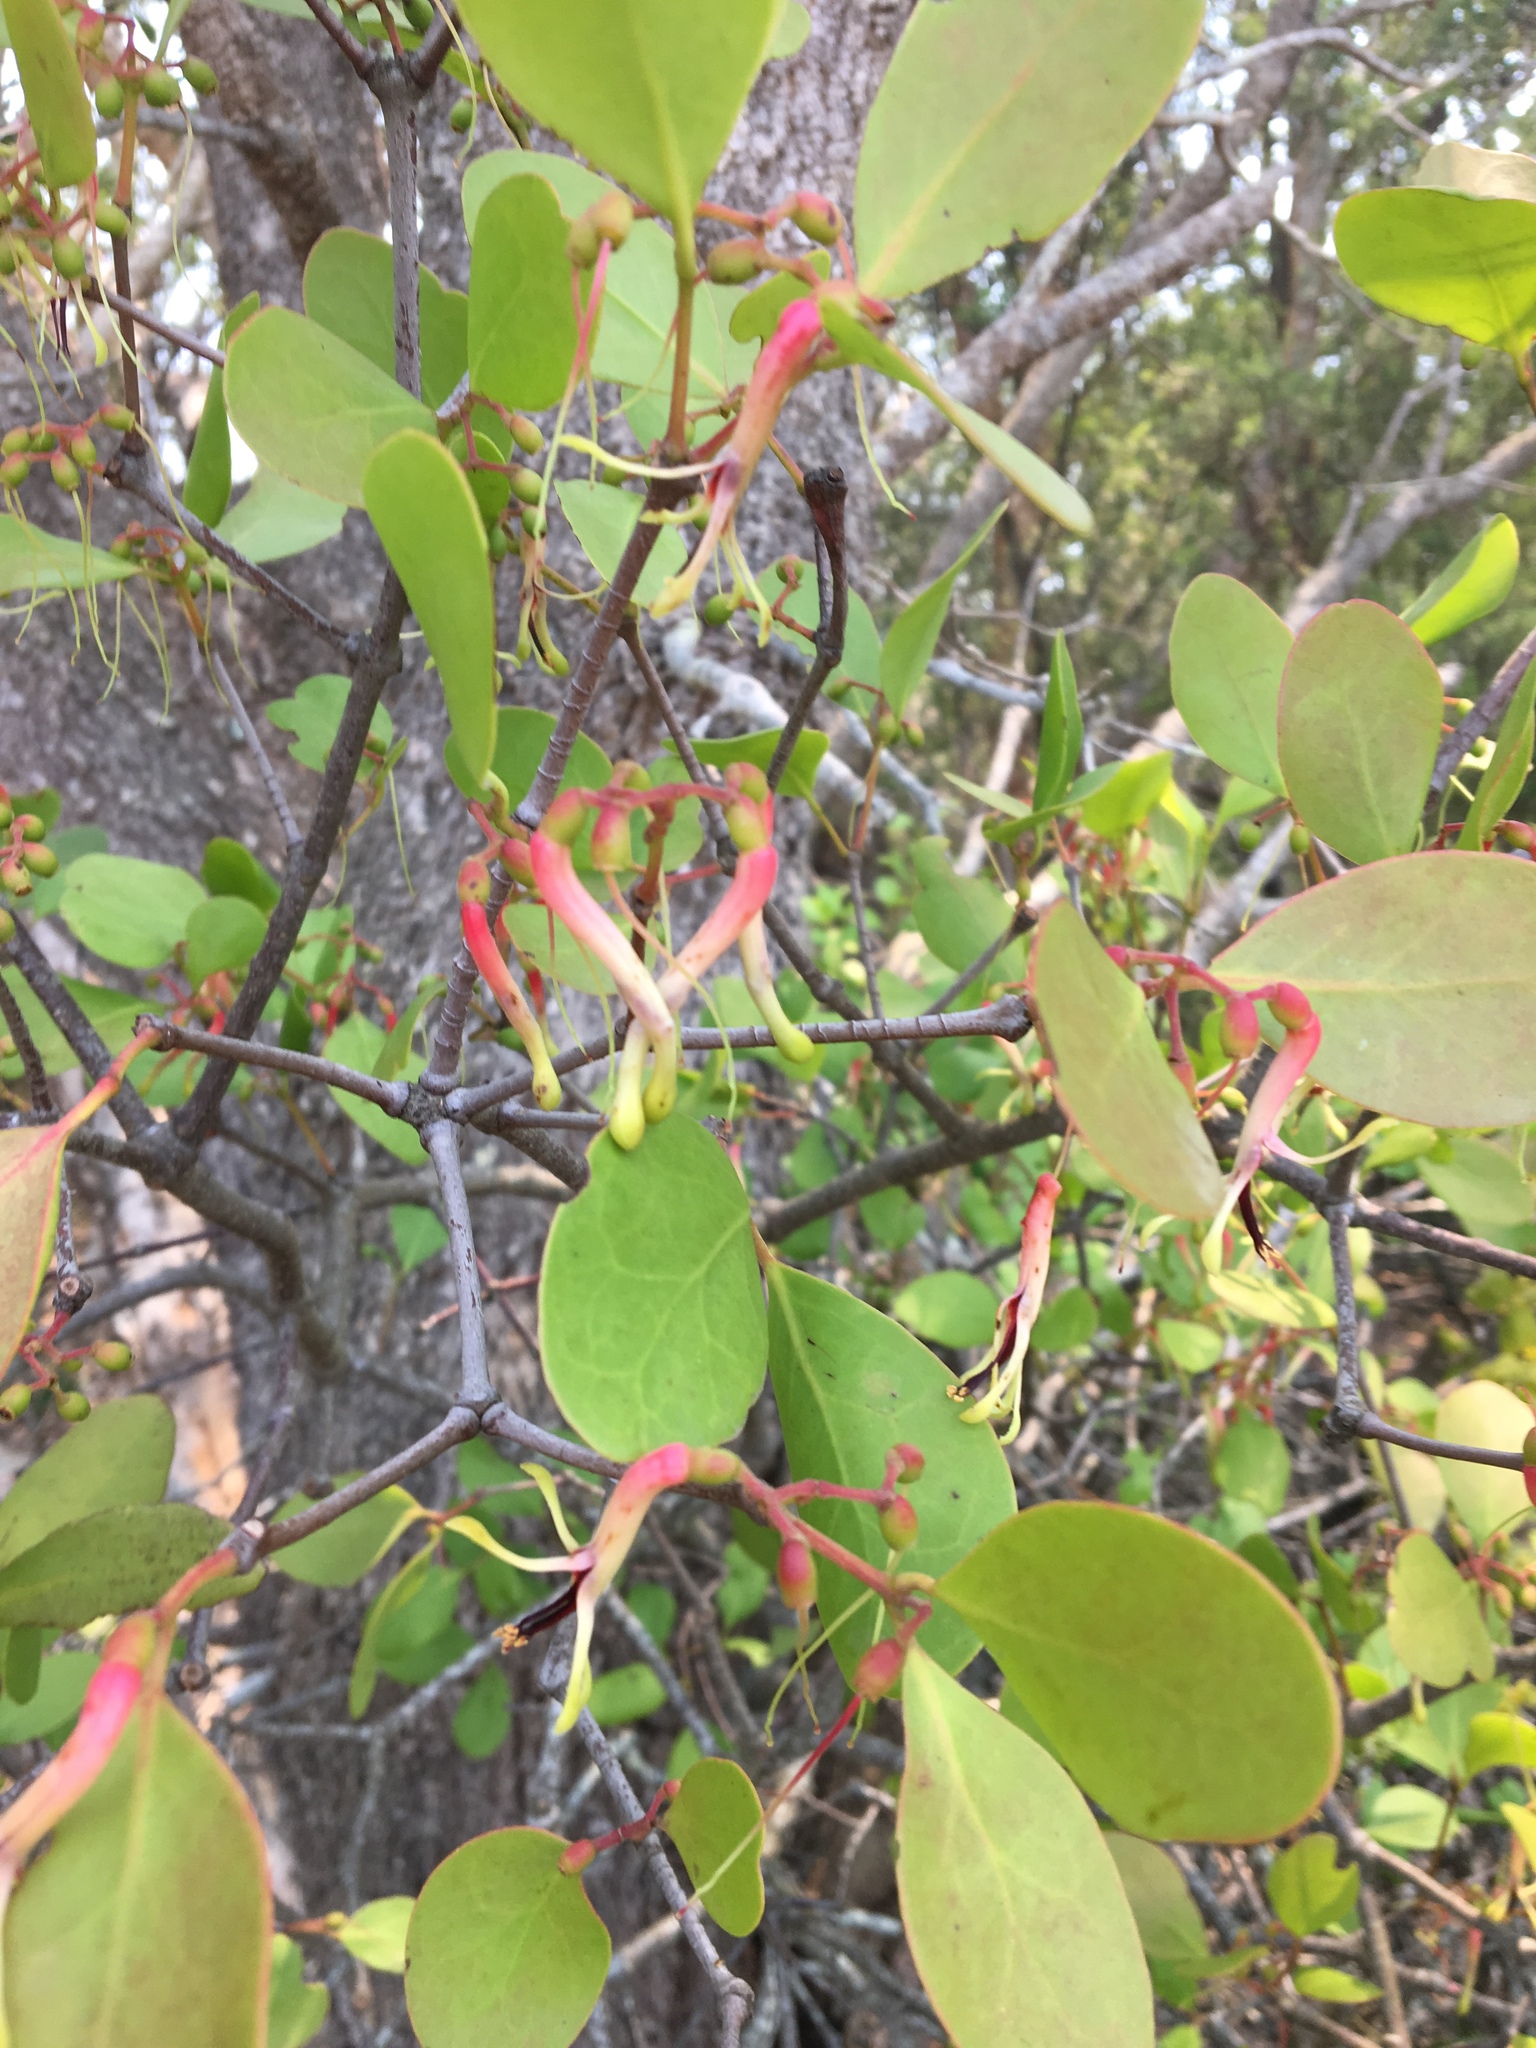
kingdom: Plantae
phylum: Tracheophyta
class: Magnoliopsida
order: Santalales
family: Loranthaceae
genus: Muellerina
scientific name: Muellerina celastroides
